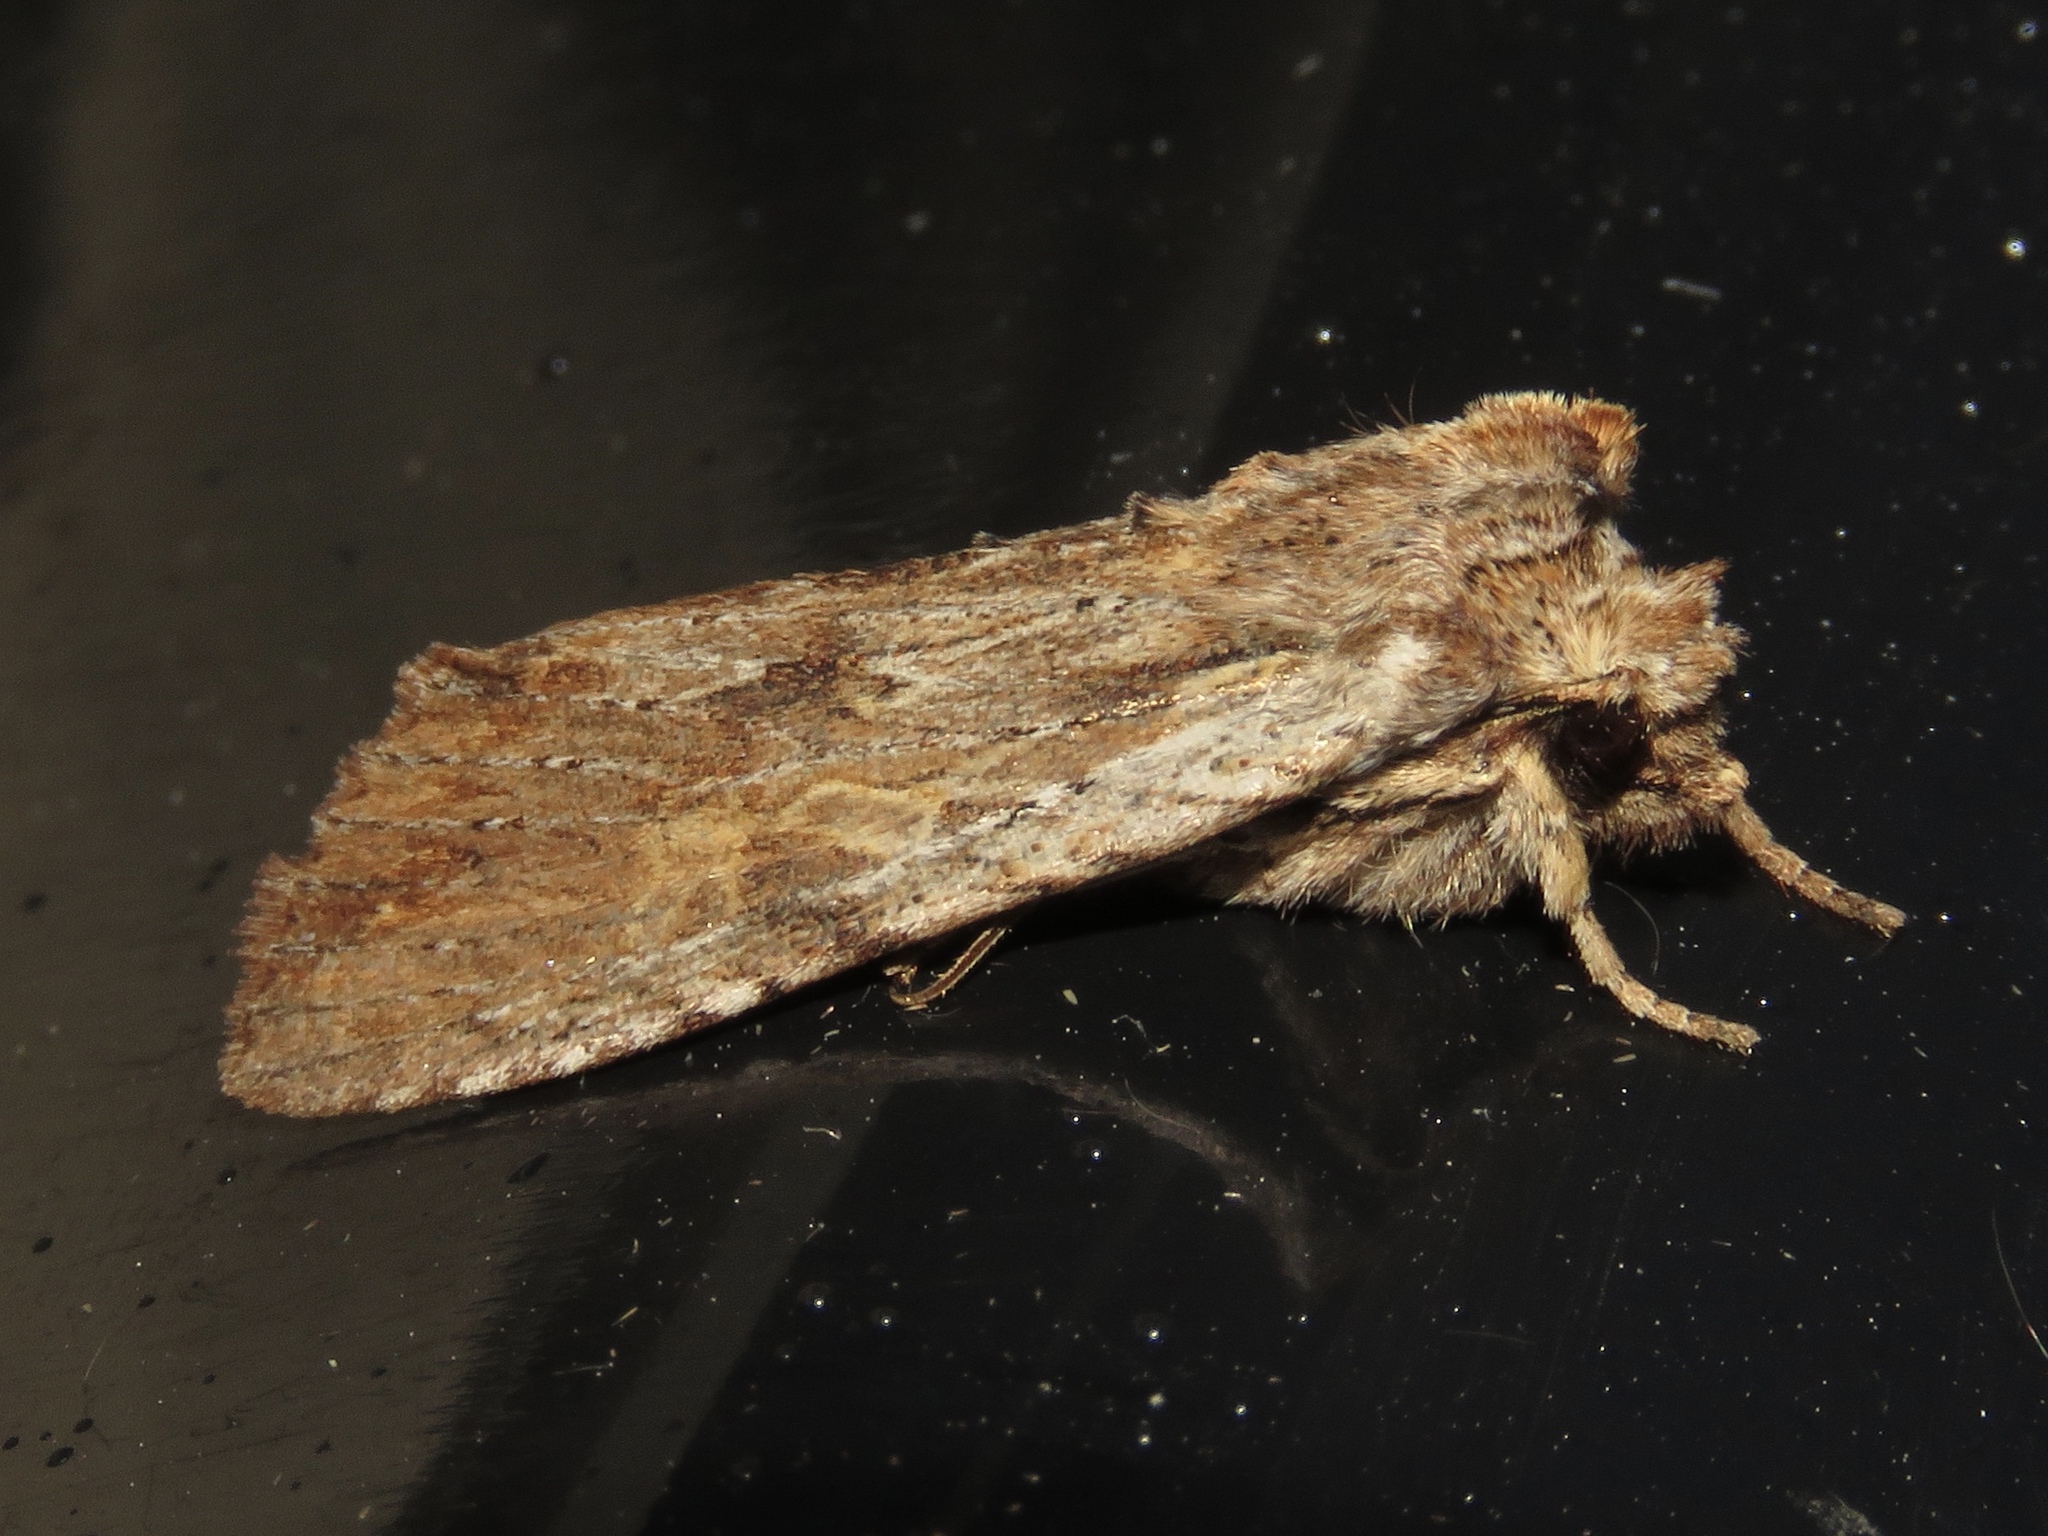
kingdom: Animalia
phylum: Arthropoda
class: Insecta
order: Lepidoptera
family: Noctuidae
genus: Lithophane
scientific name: Lithophane petulca
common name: Wanton pinion
